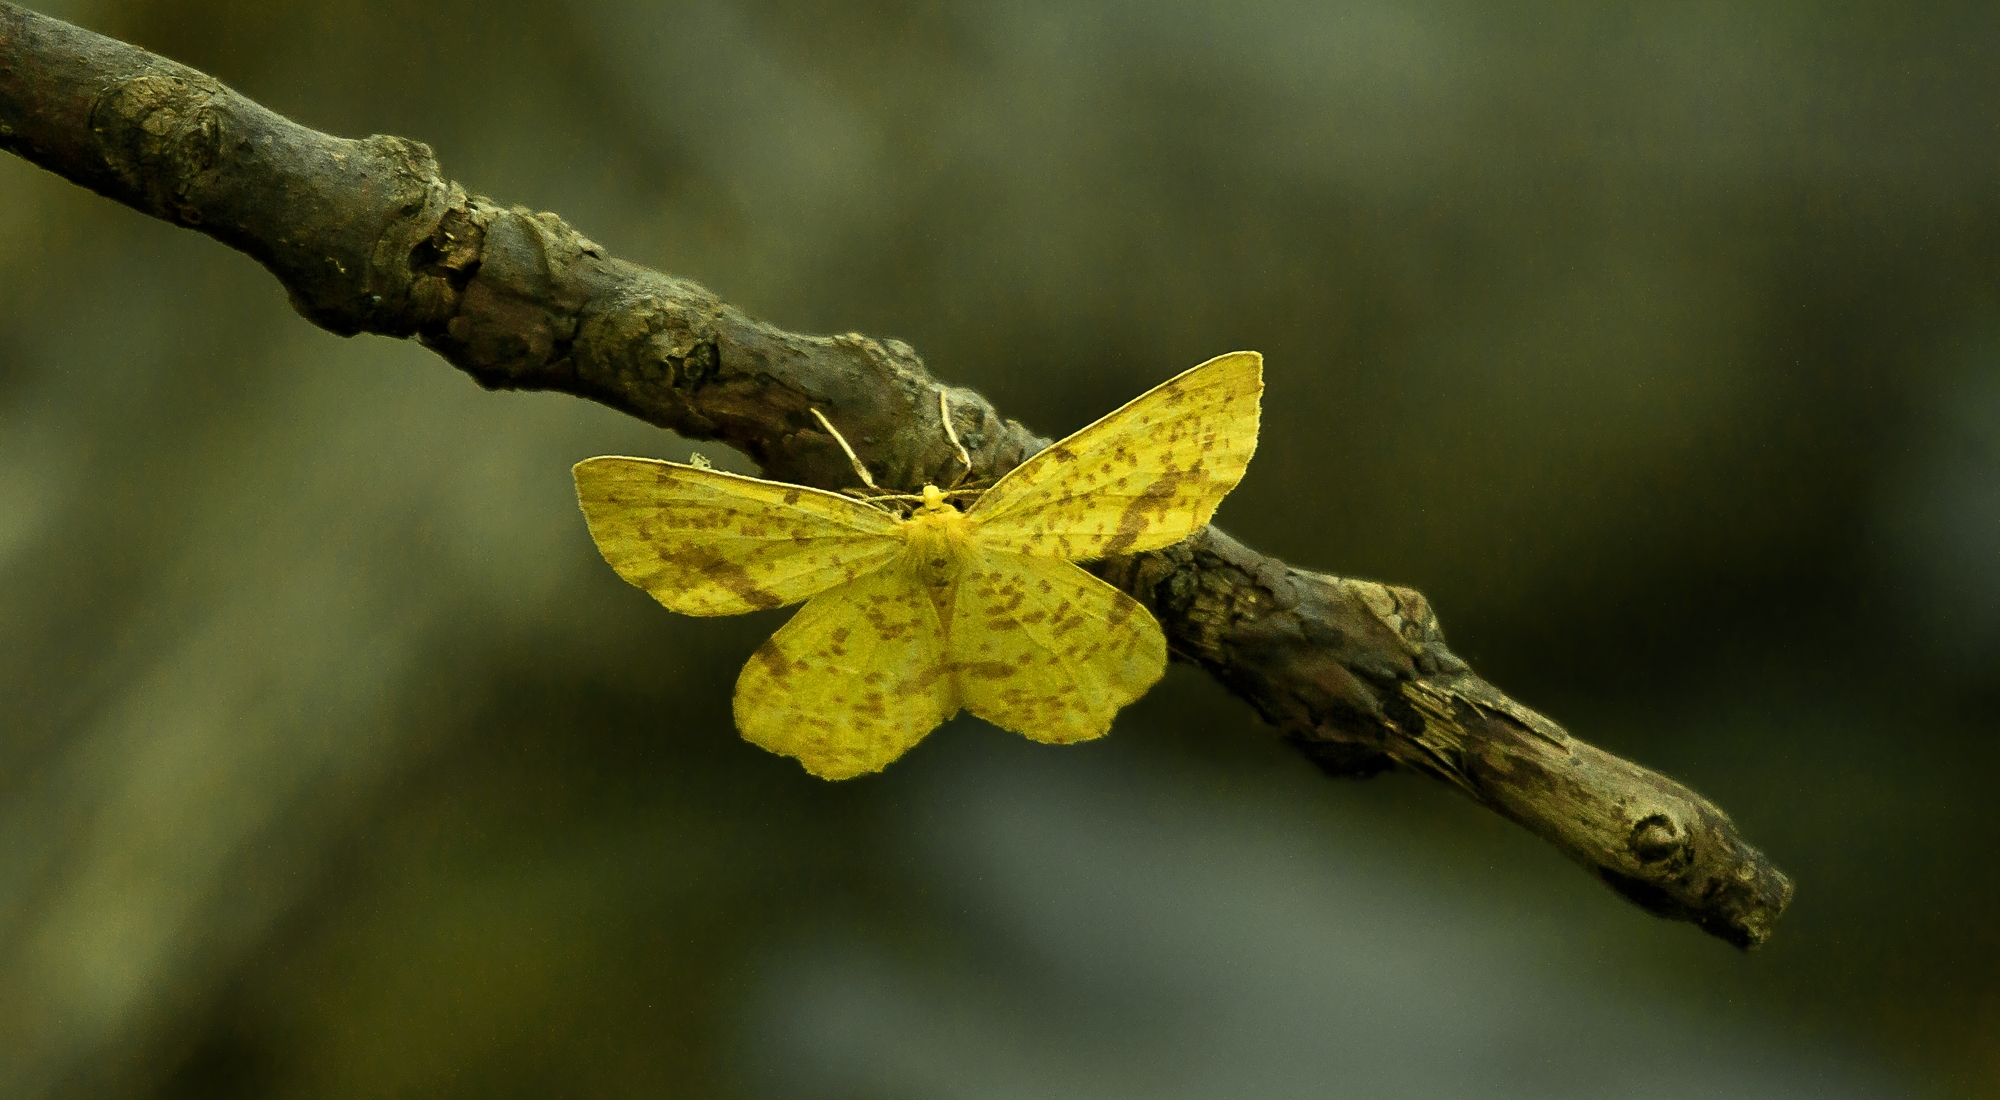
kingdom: Animalia
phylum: Arthropoda
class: Insecta
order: Lepidoptera
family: Geometridae
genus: Xanthotype
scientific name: Xanthotype
